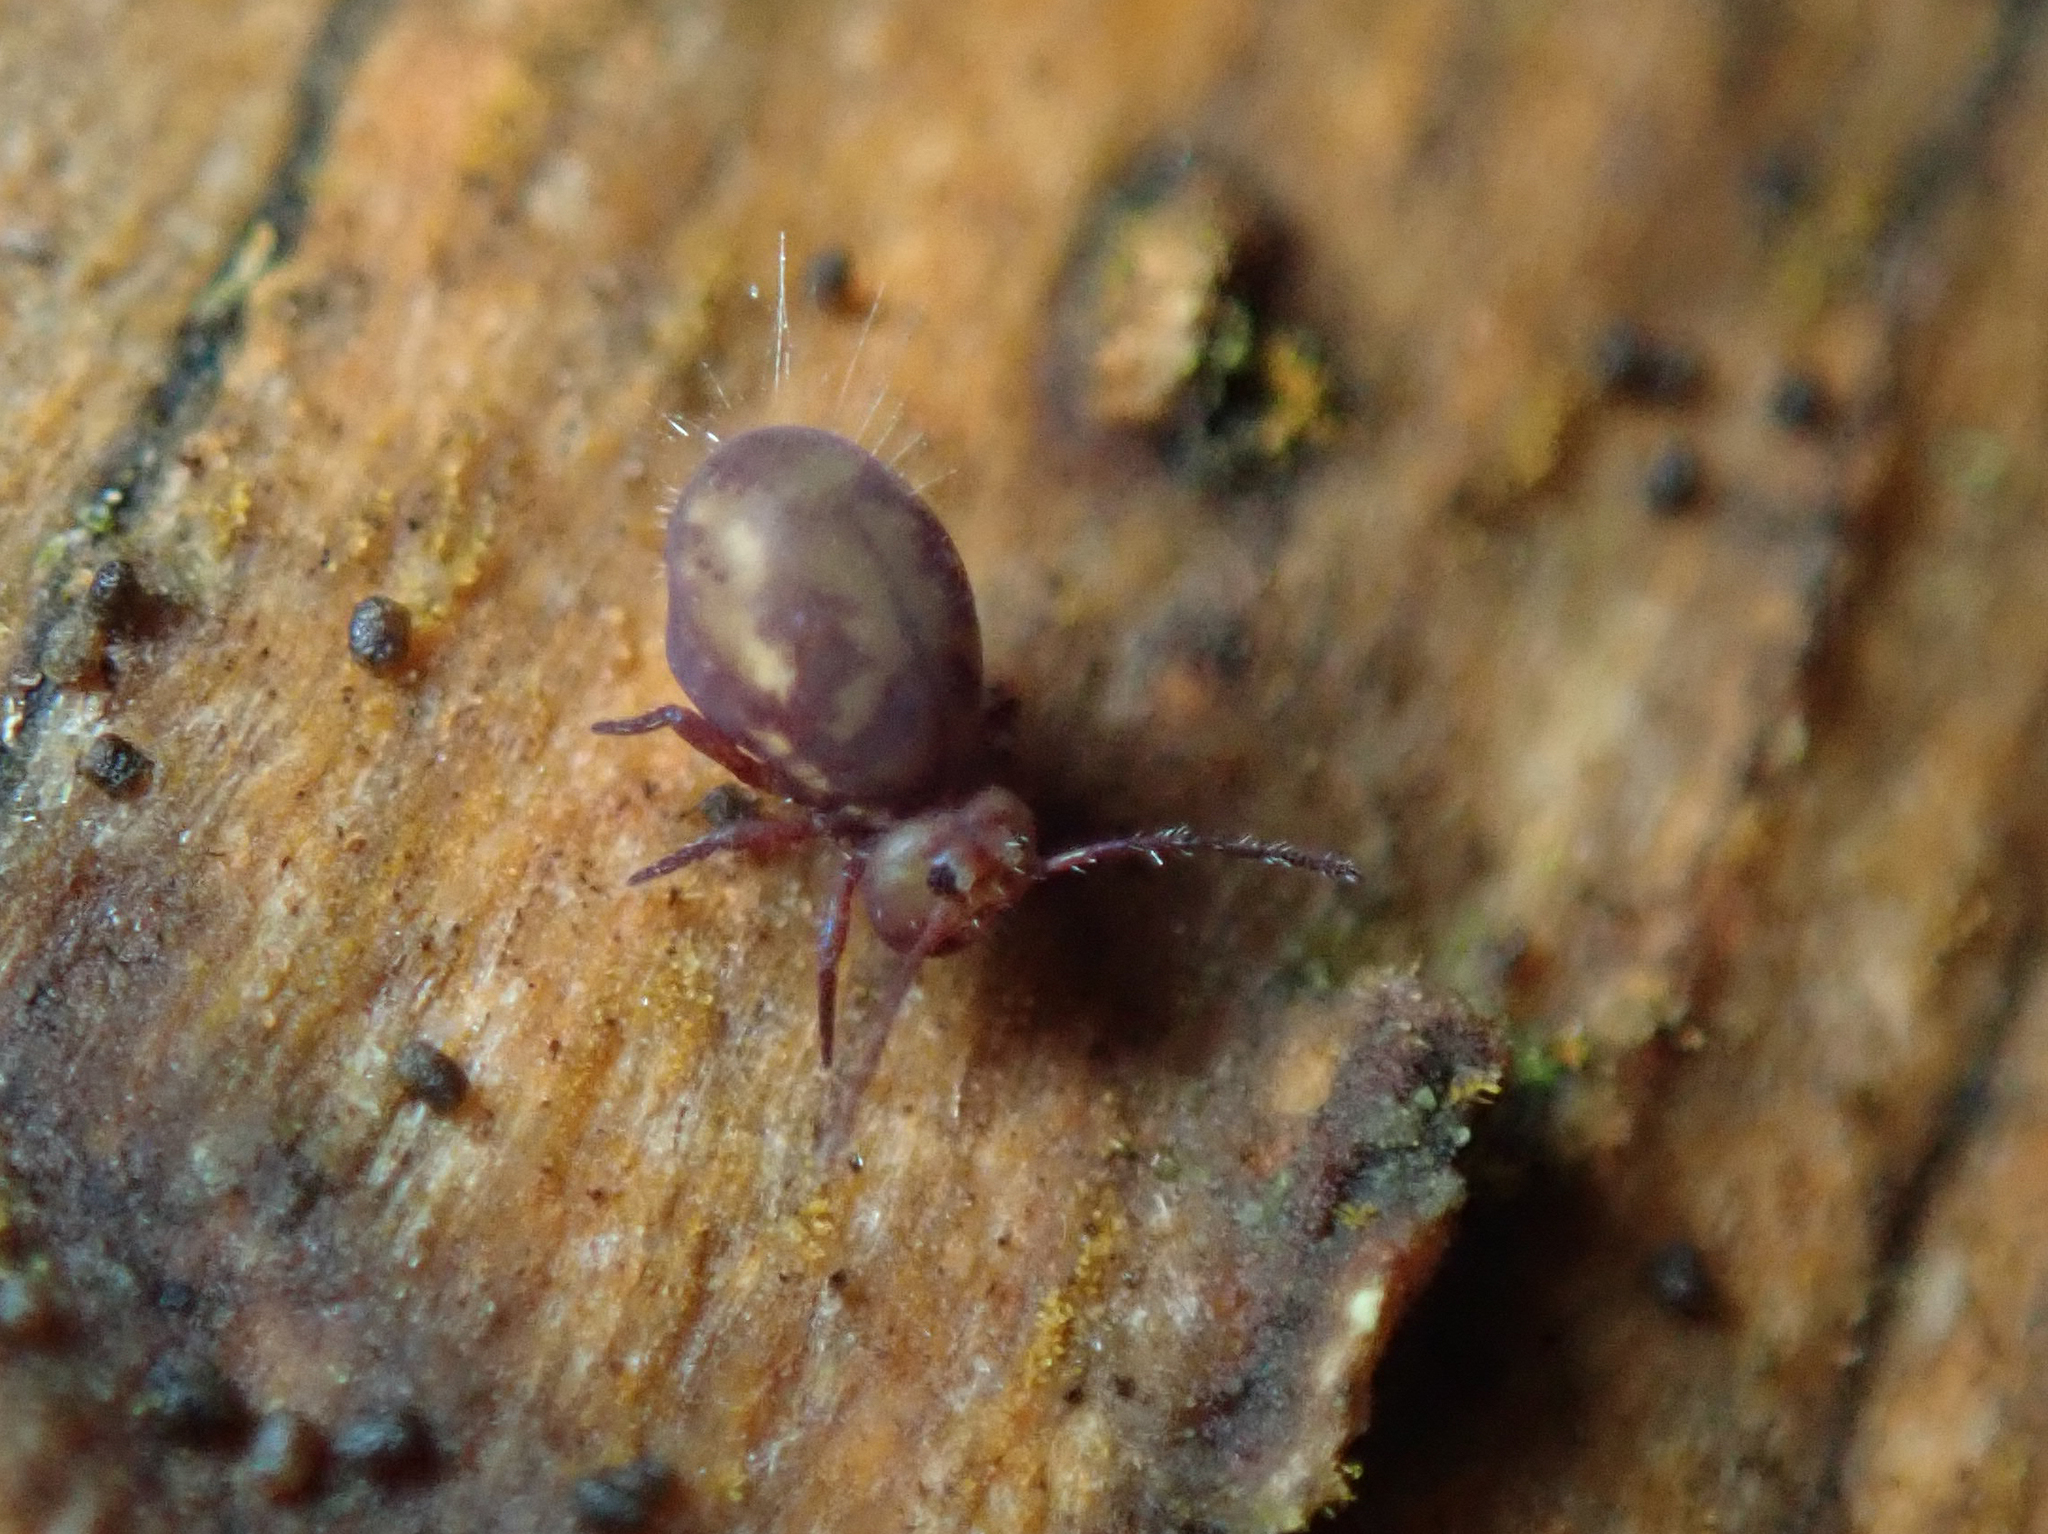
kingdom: Animalia
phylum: Arthropoda
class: Collembola
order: Symphypleona
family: Dicyrtomidae
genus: Dicyrtoma
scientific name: Dicyrtoma fusca
